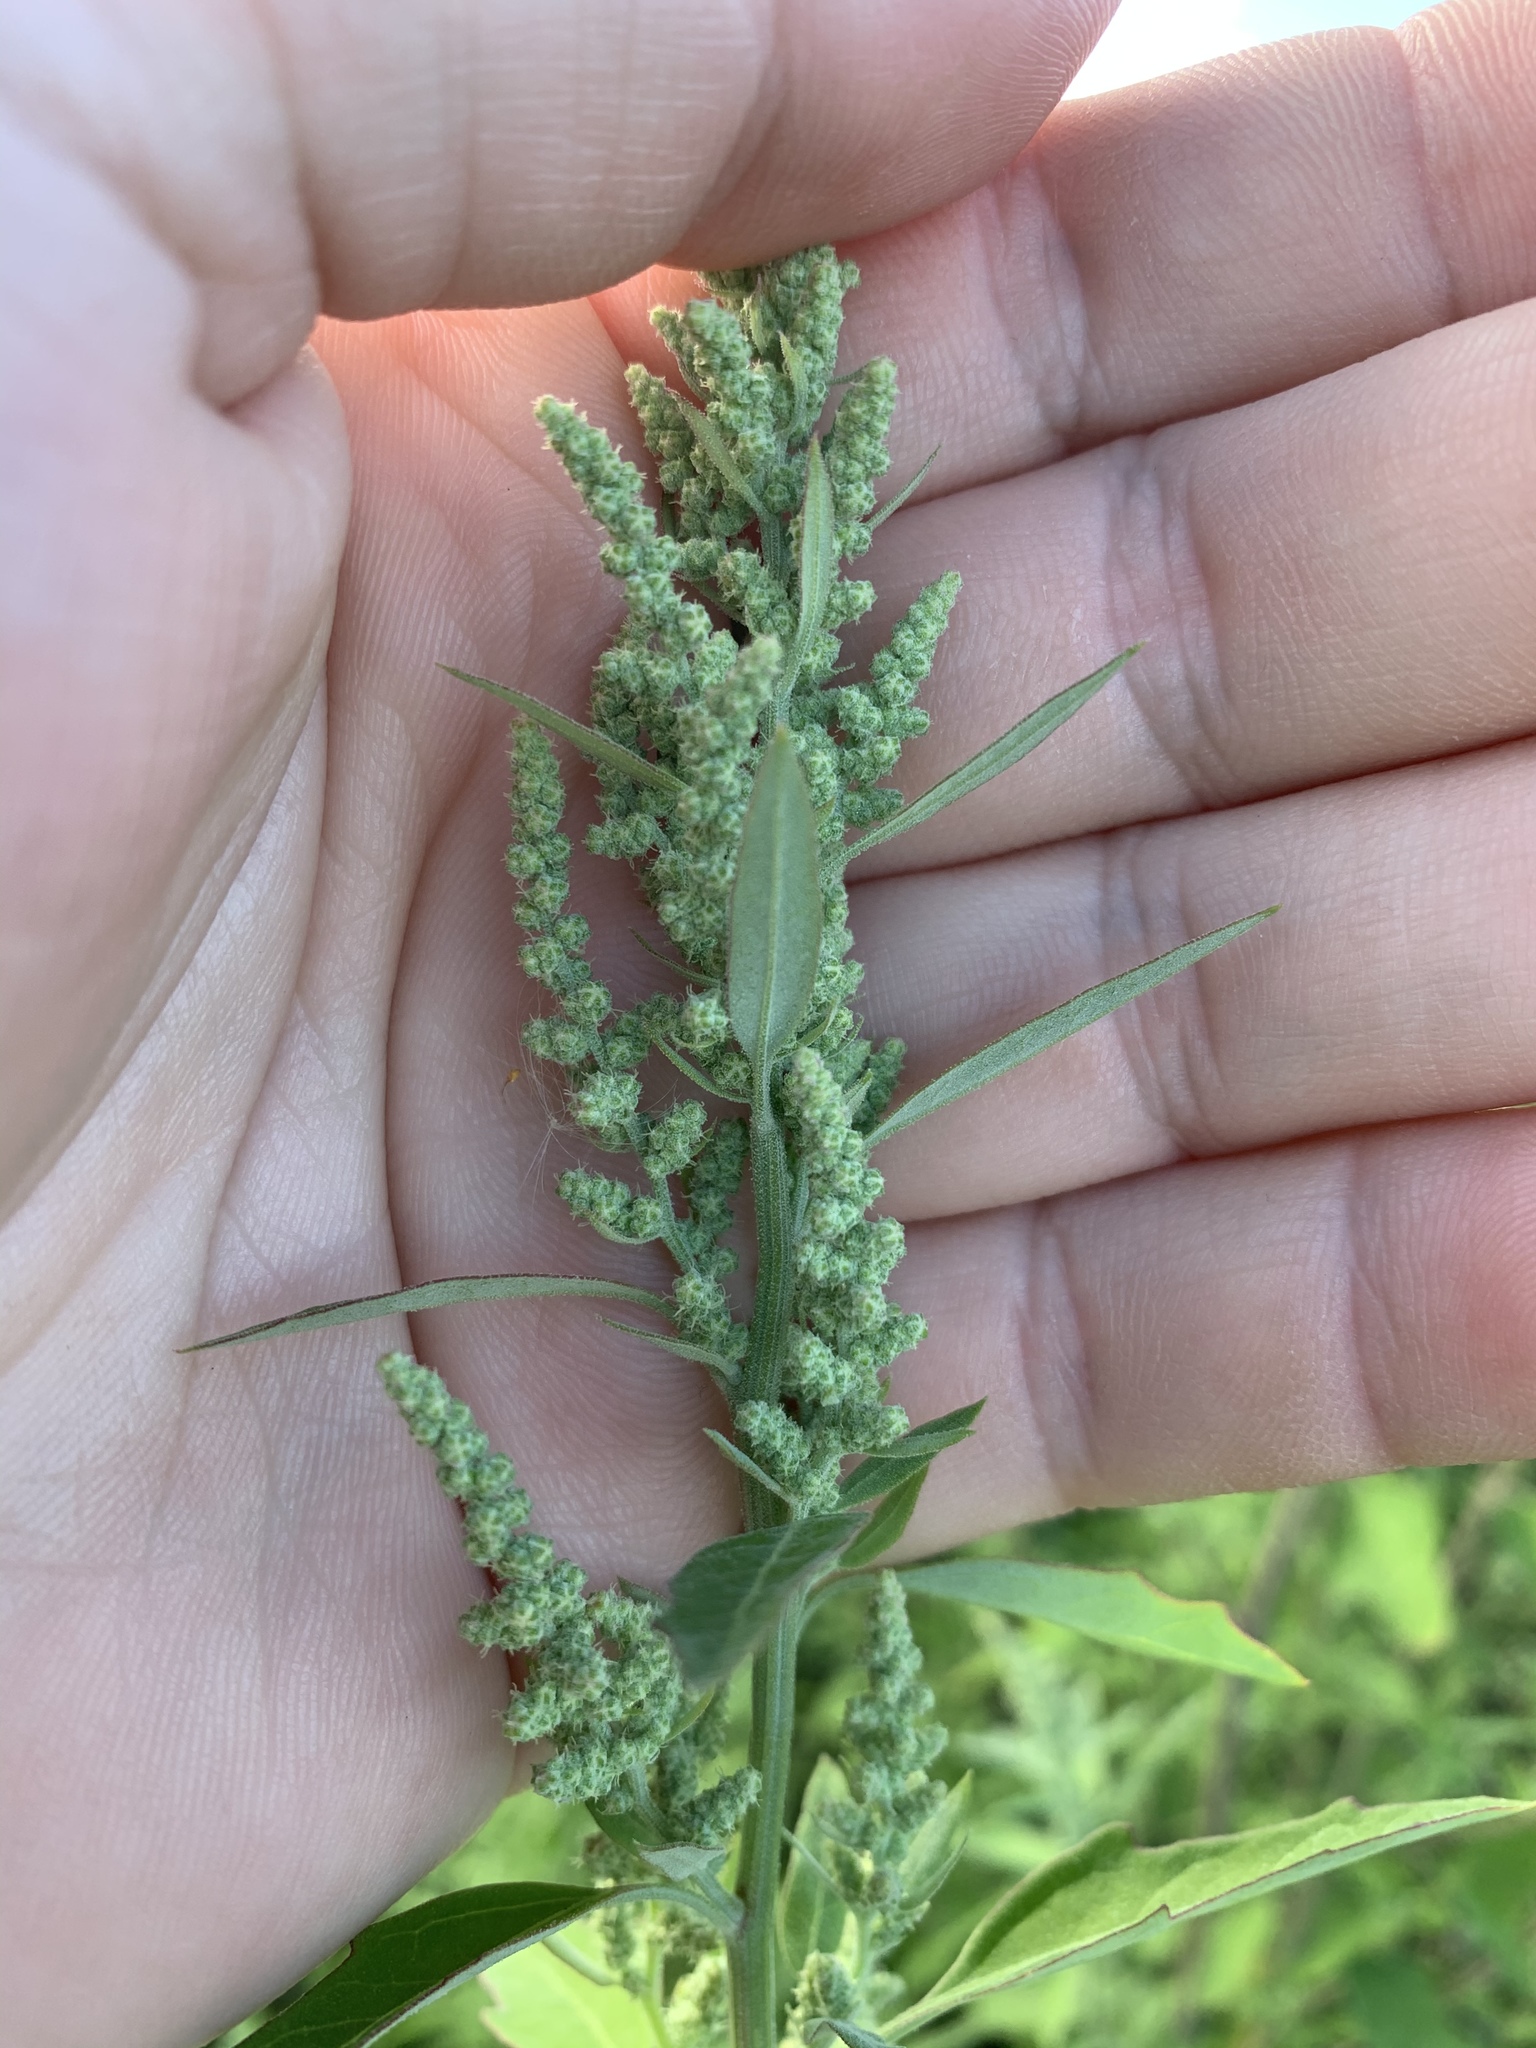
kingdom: Plantae
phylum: Tracheophyta
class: Magnoliopsida
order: Caryophyllales
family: Amaranthaceae
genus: Chenopodium
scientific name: Chenopodium album
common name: Fat-hen
